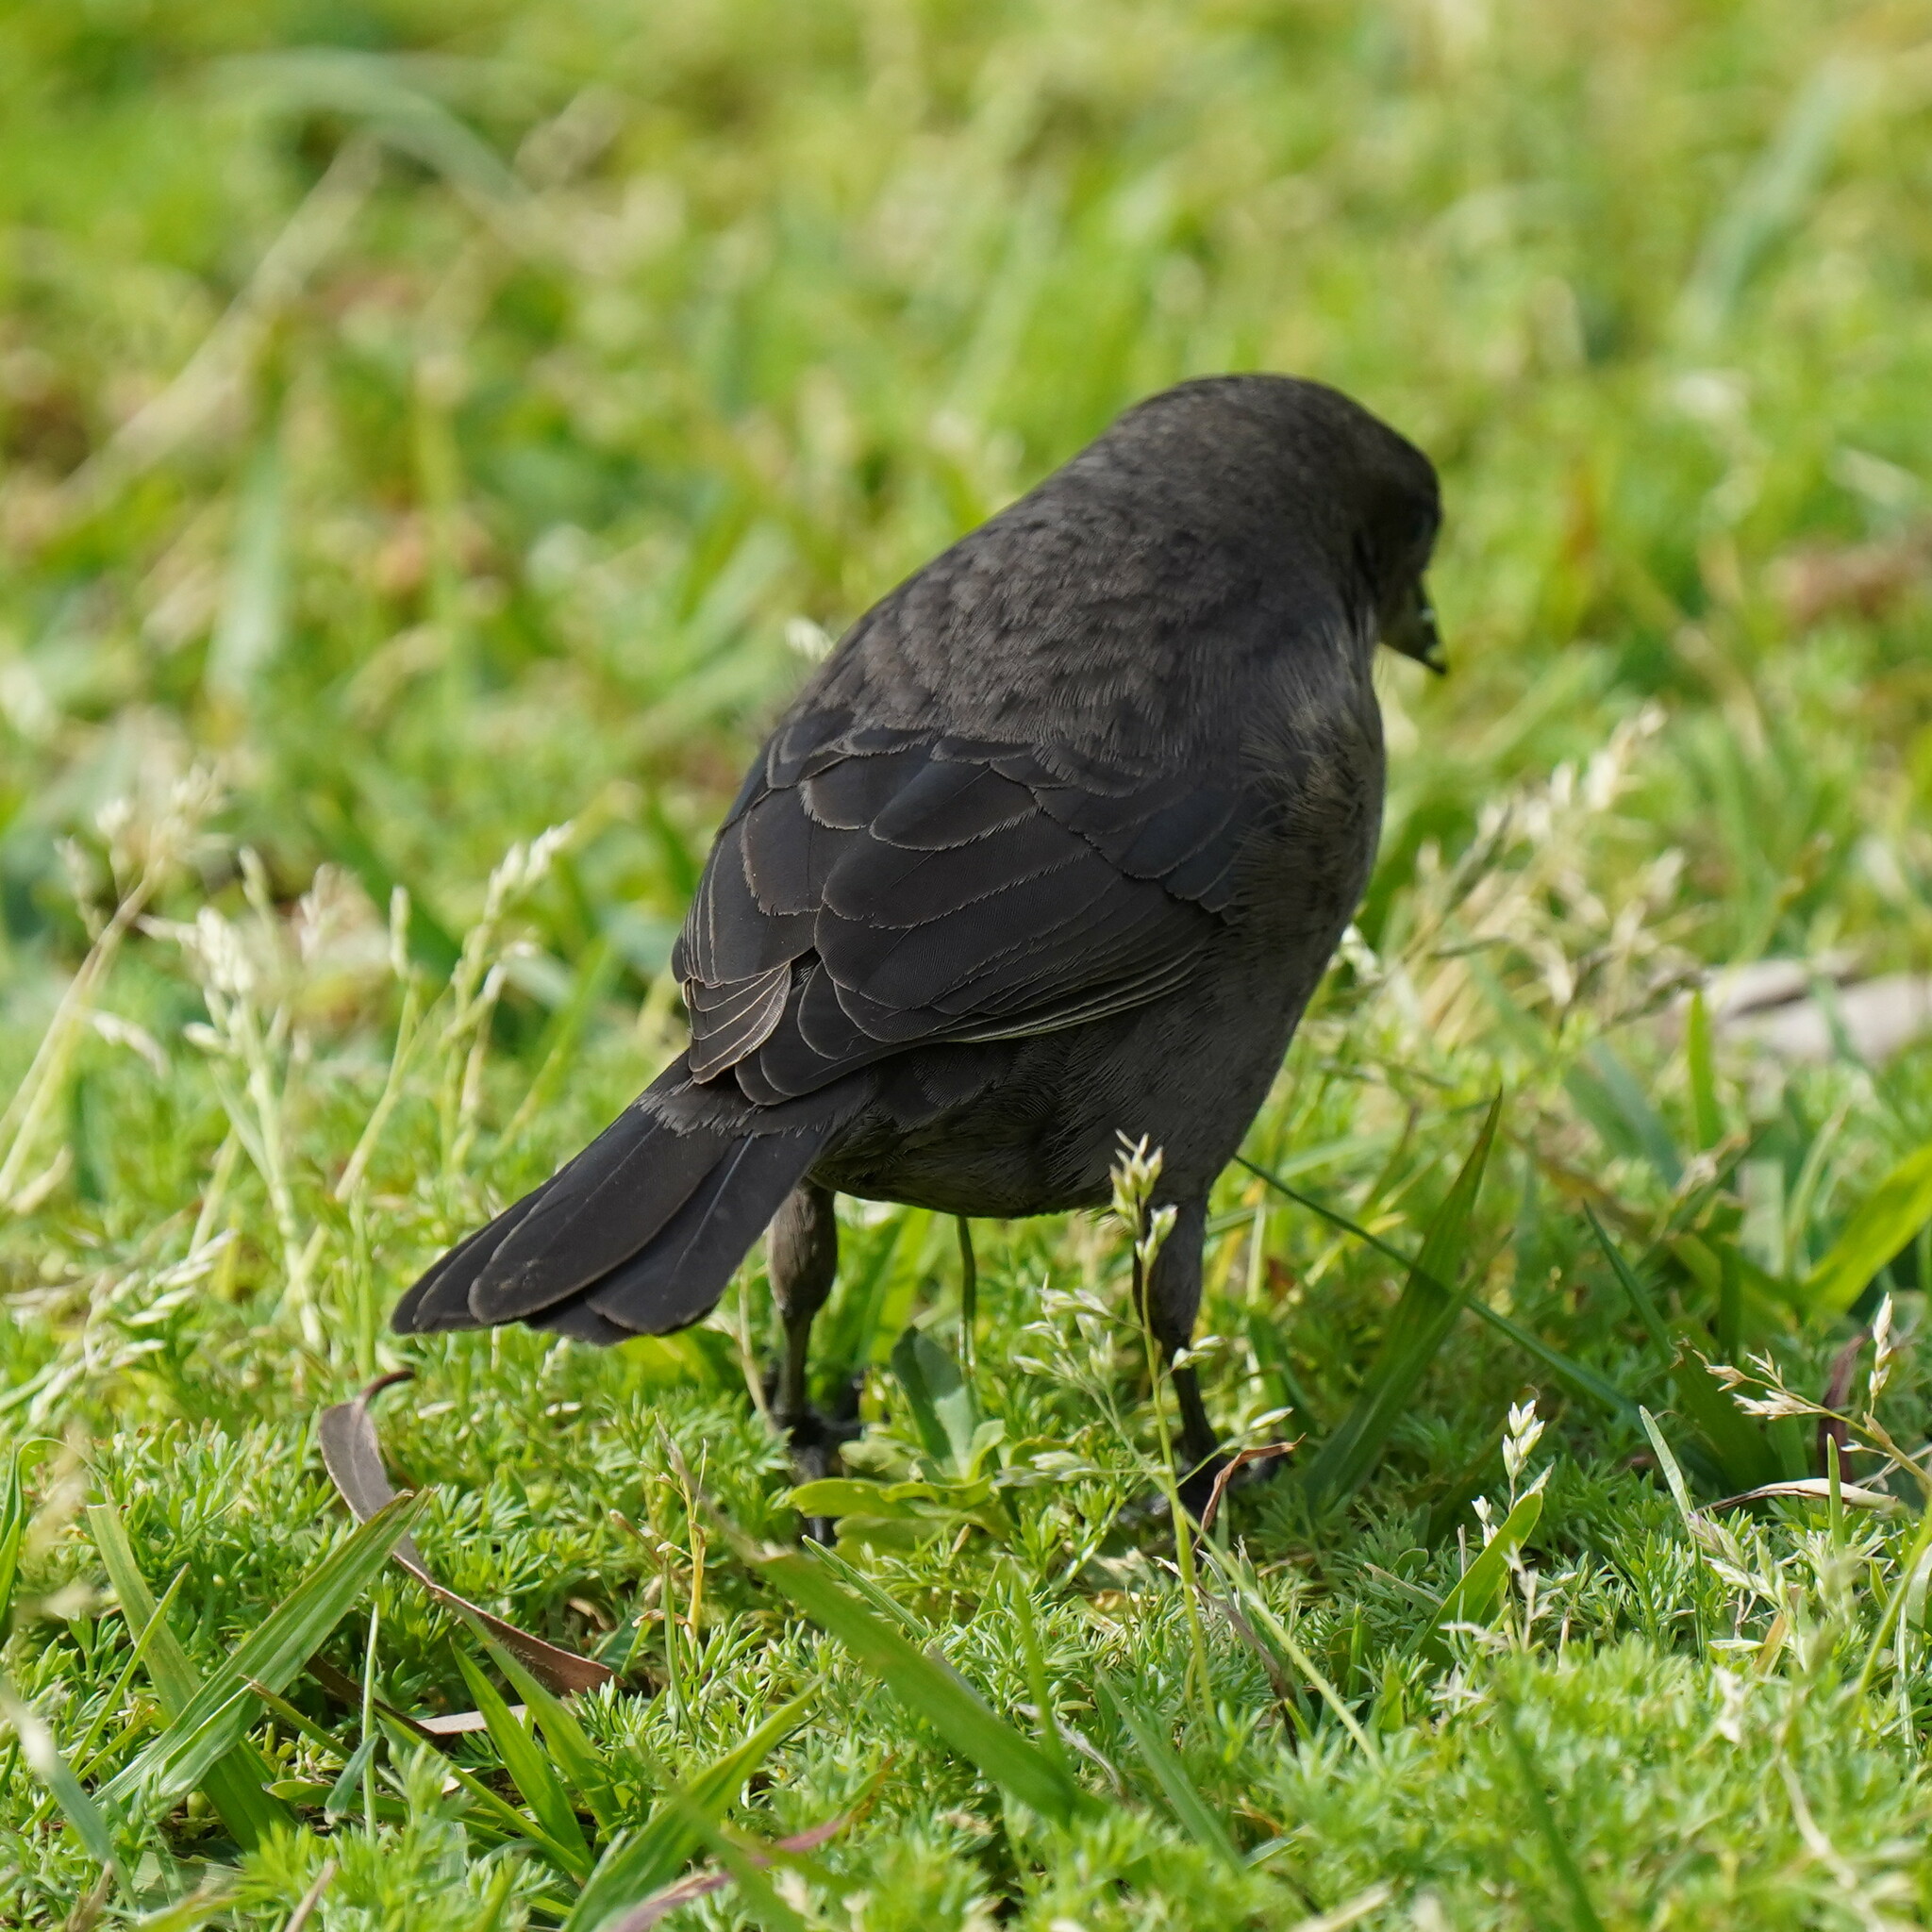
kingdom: Animalia
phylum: Chordata
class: Aves
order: Passeriformes
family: Icteridae
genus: Molothrus
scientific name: Molothrus bonariensis
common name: Shiny cowbird
